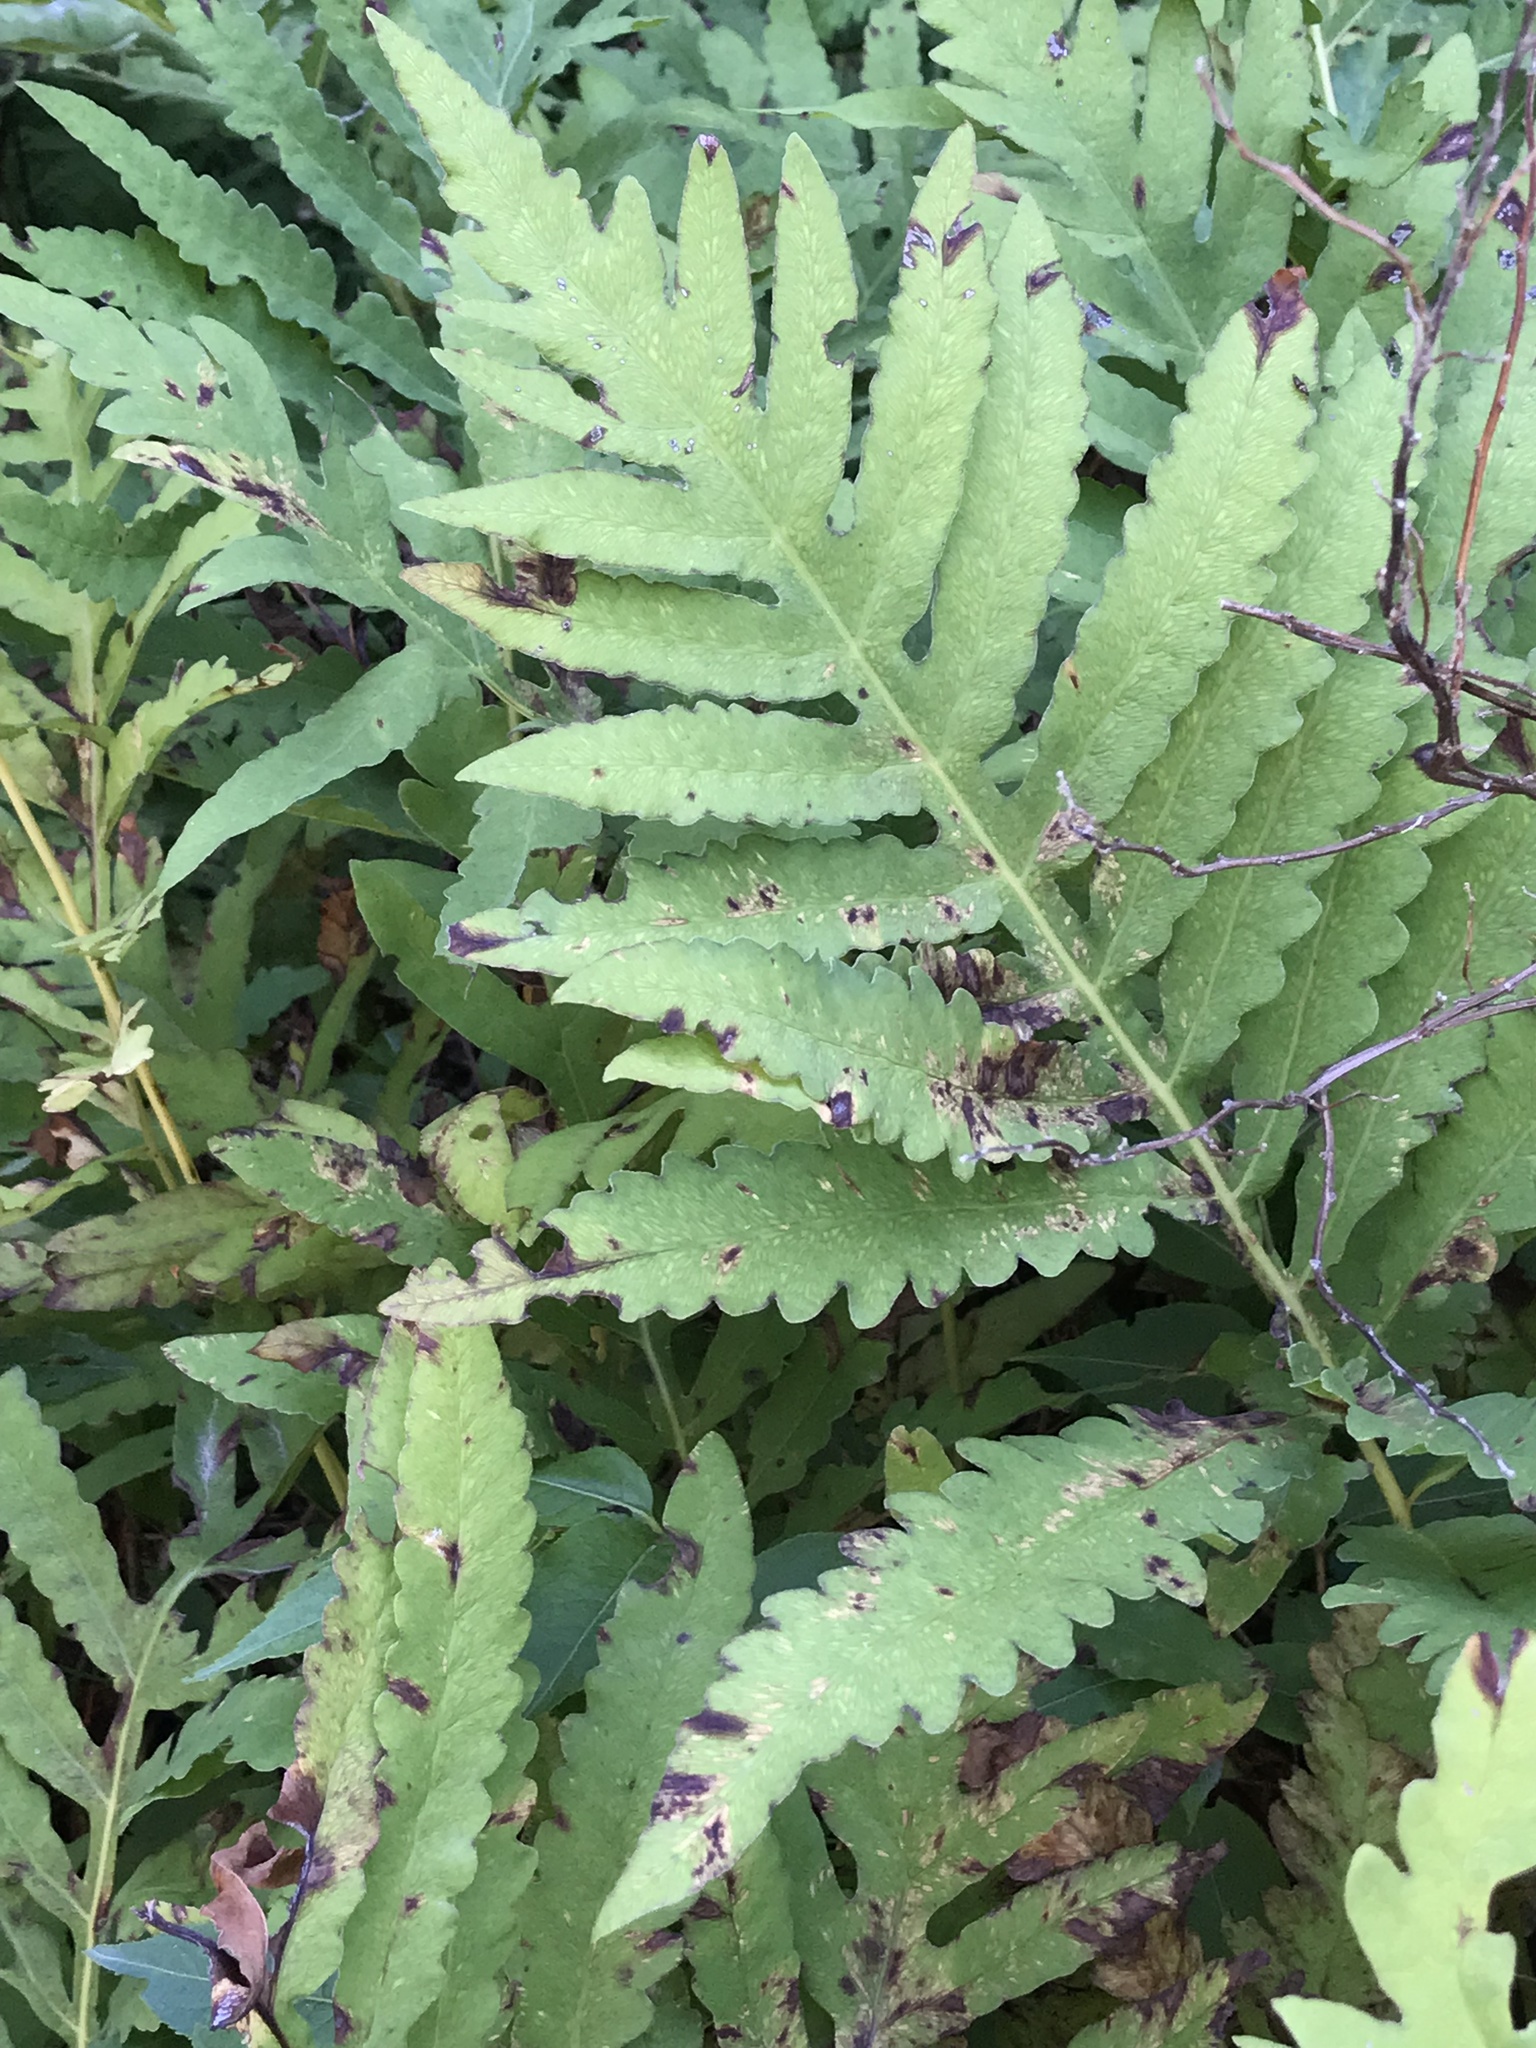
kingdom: Plantae
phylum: Tracheophyta
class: Polypodiopsida
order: Polypodiales
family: Onocleaceae
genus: Onoclea
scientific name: Onoclea sensibilis
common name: Sensitive fern
